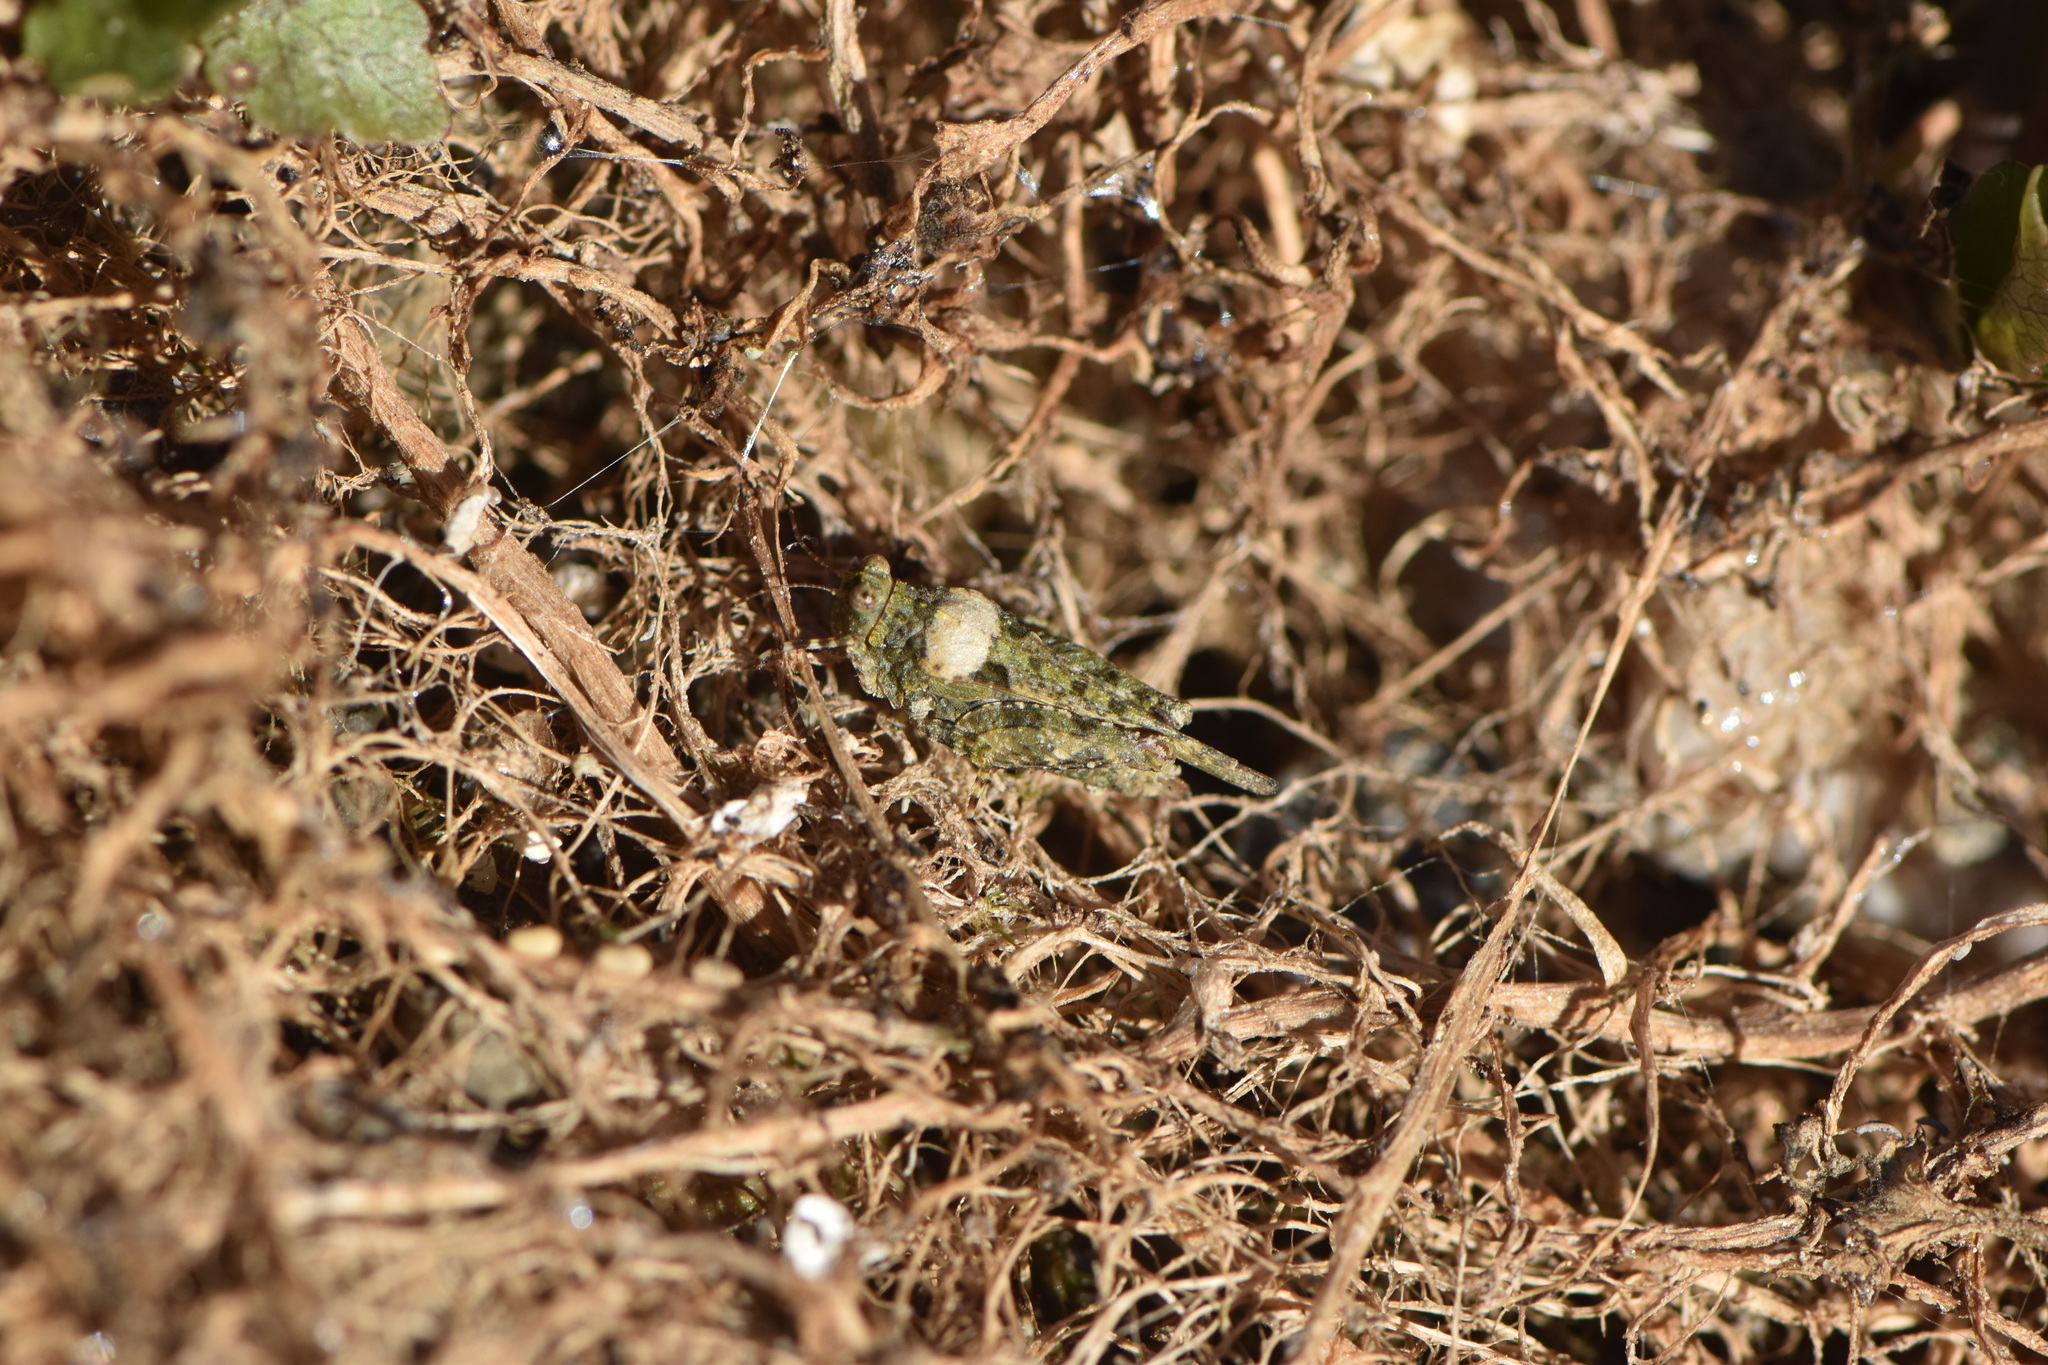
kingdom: Animalia
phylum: Arthropoda
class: Insecta
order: Orthoptera
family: Tetrigidae
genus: Paratettix
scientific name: Paratettix meridionalis
